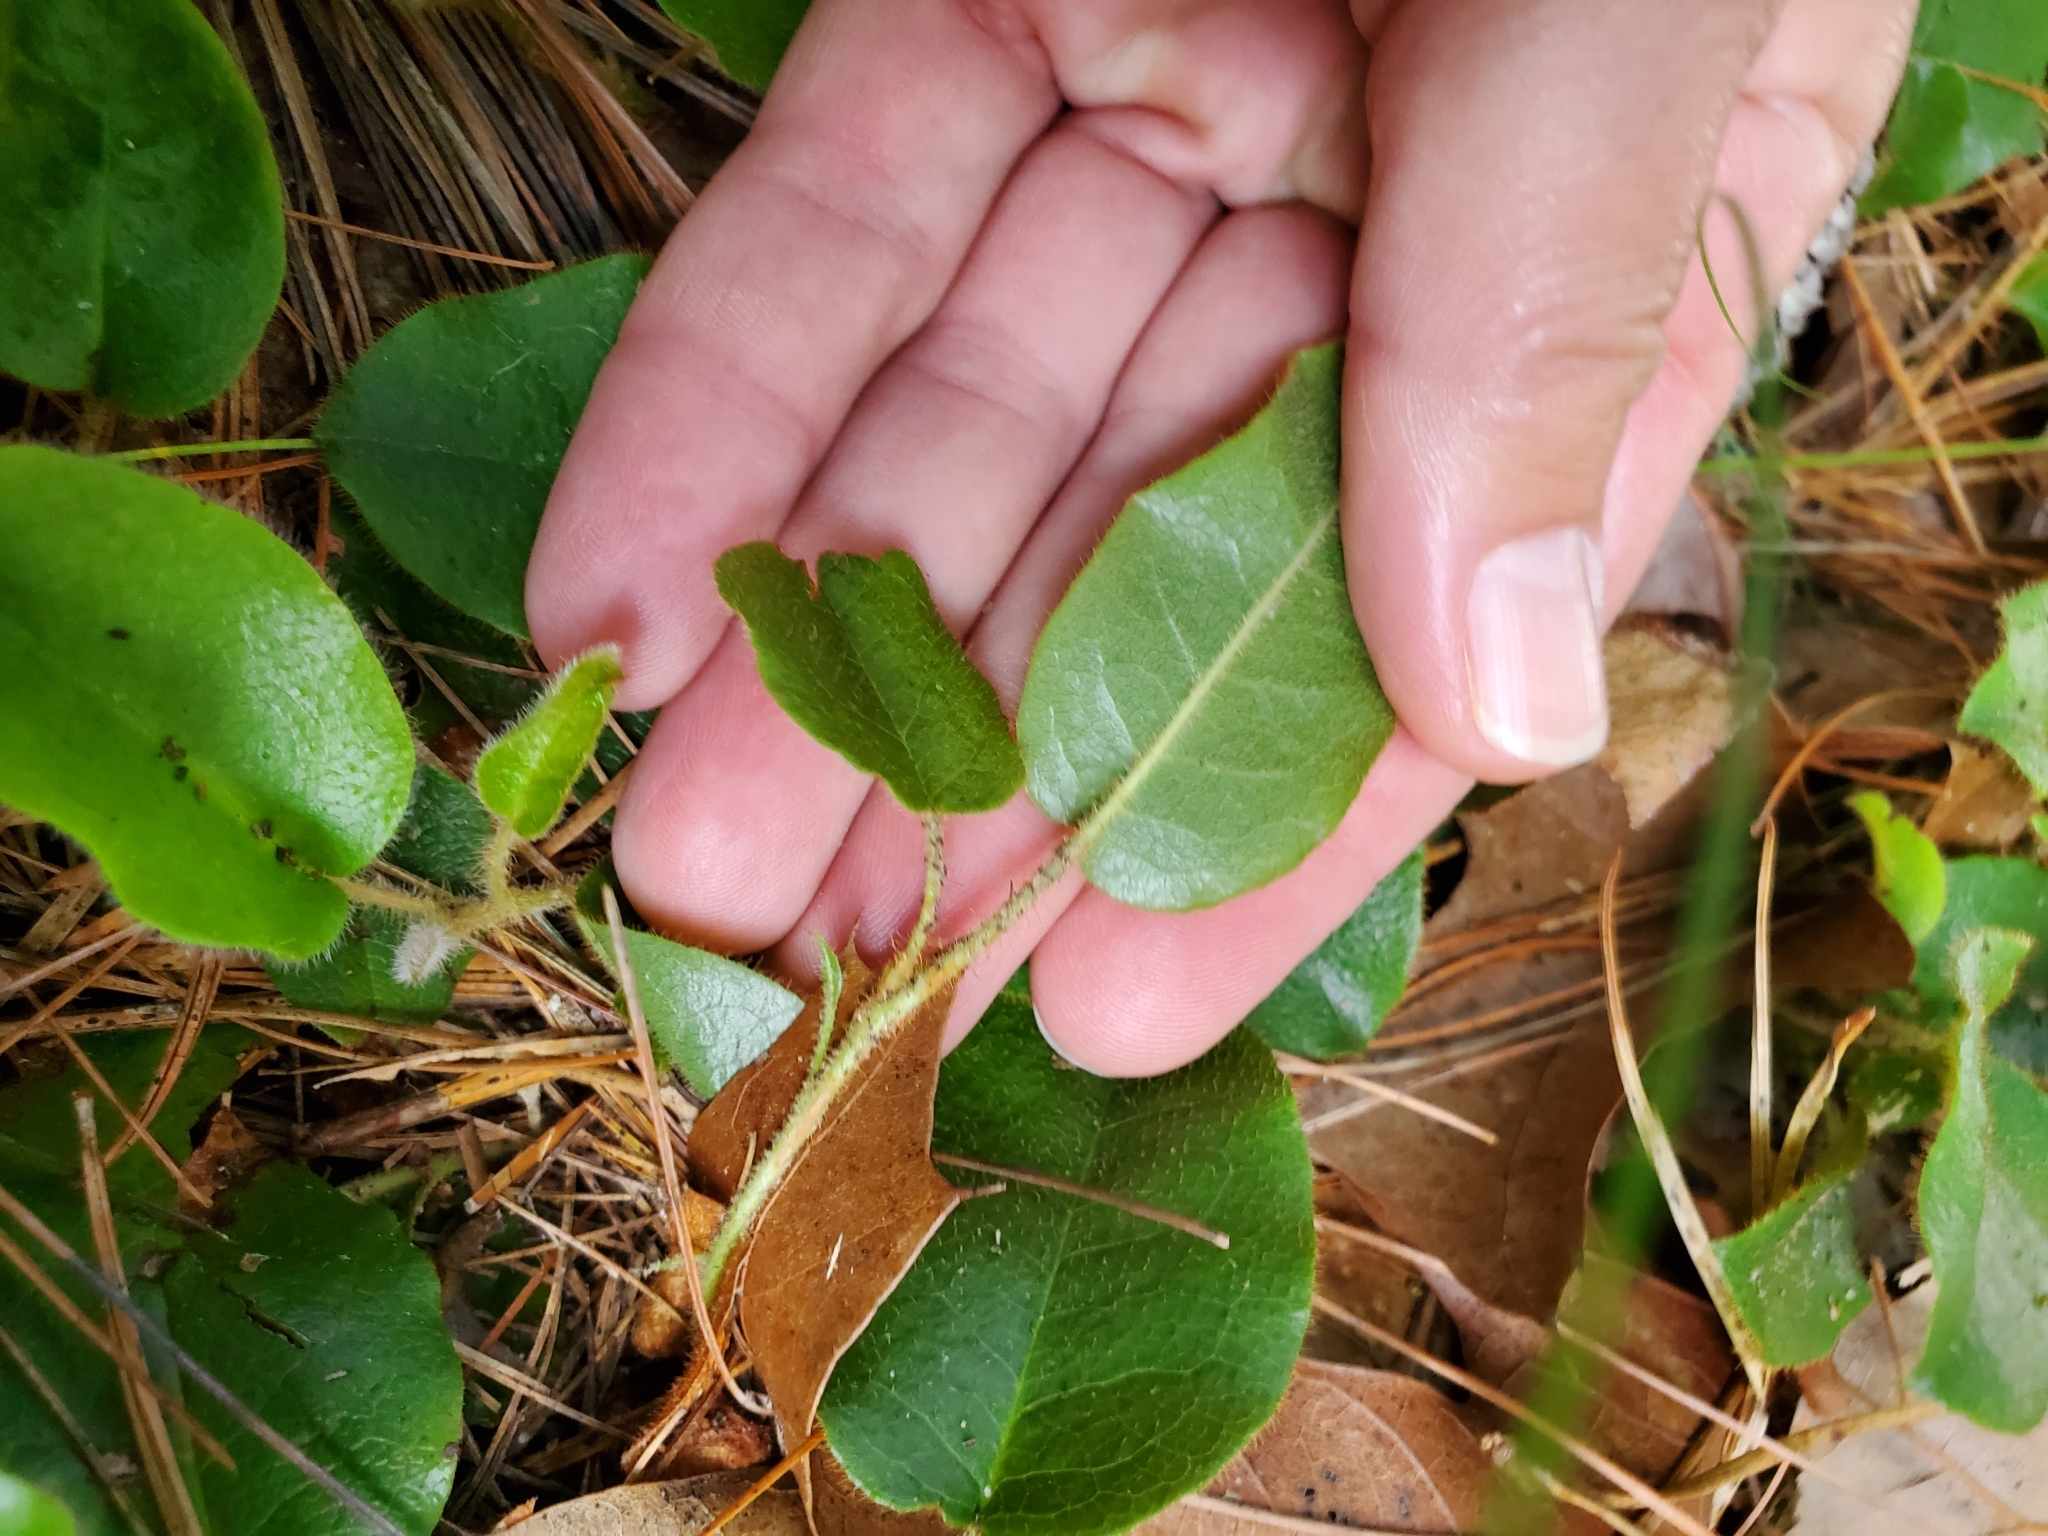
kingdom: Plantae
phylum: Tracheophyta
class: Magnoliopsida
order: Ericales
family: Ericaceae
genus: Epigaea
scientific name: Epigaea repens
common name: Gravelroot
